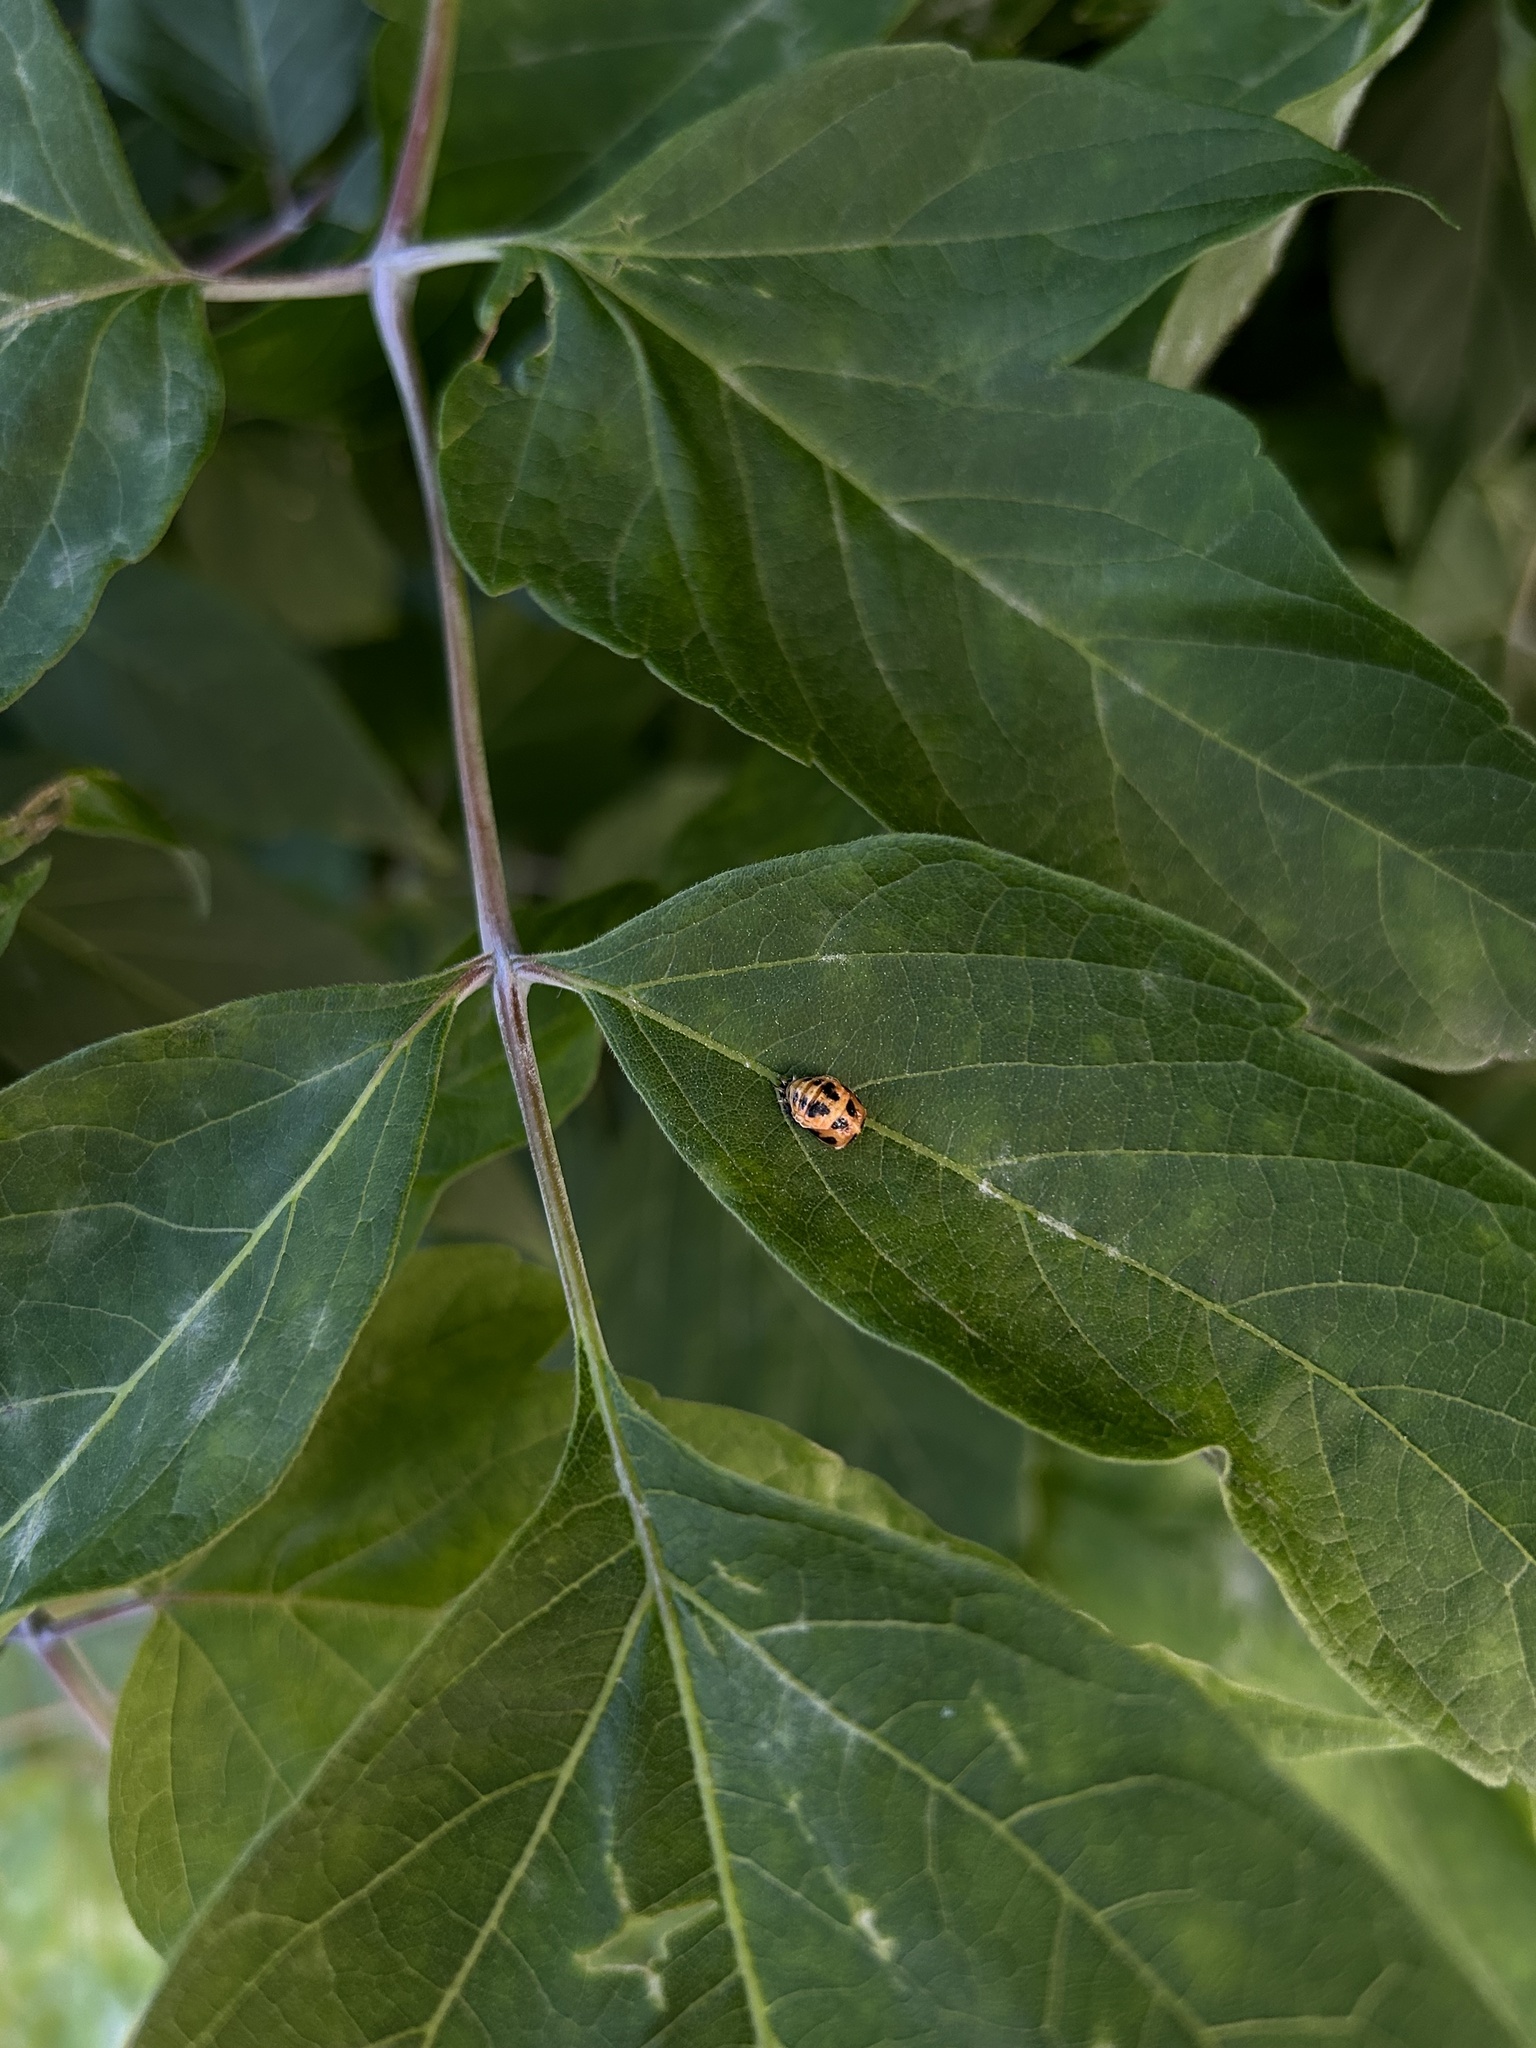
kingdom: Animalia
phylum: Arthropoda
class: Insecta
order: Coleoptera
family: Coccinellidae
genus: Harmonia
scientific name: Harmonia axyridis
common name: Harlequin ladybird
